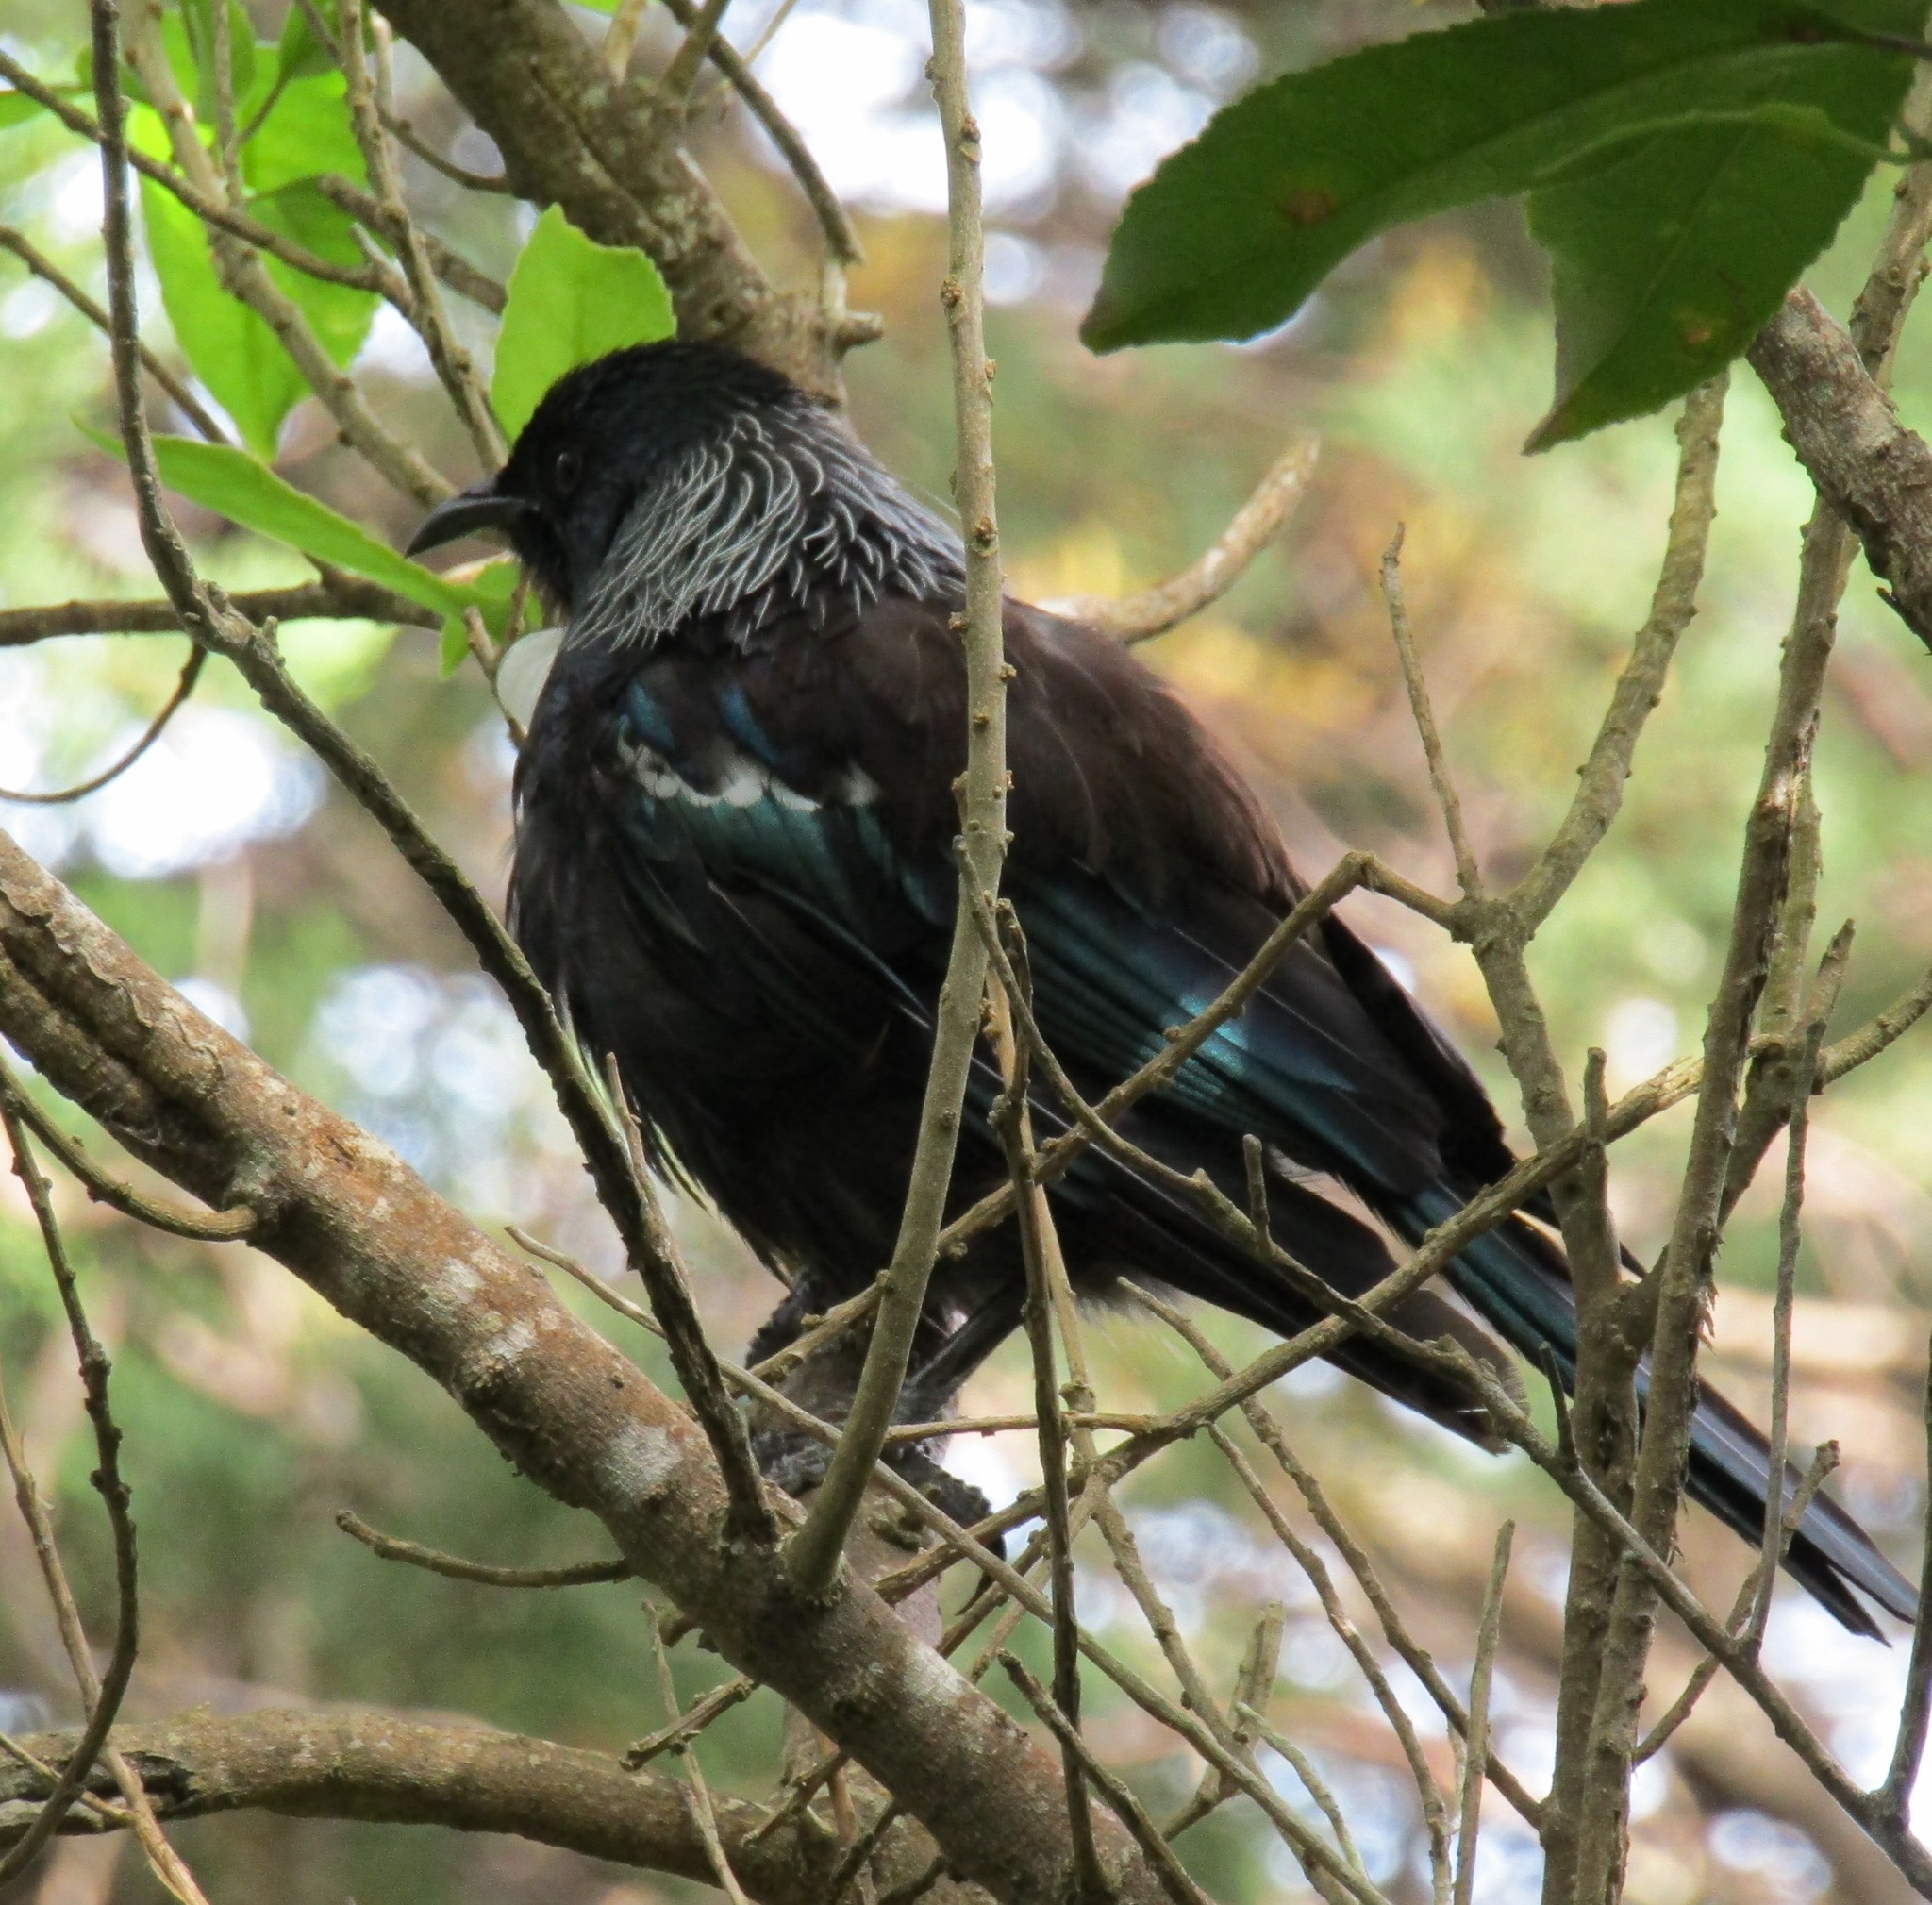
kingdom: Animalia
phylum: Chordata
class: Aves
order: Passeriformes
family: Meliphagidae
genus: Prosthemadera
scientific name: Prosthemadera novaeseelandiae
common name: Tui
